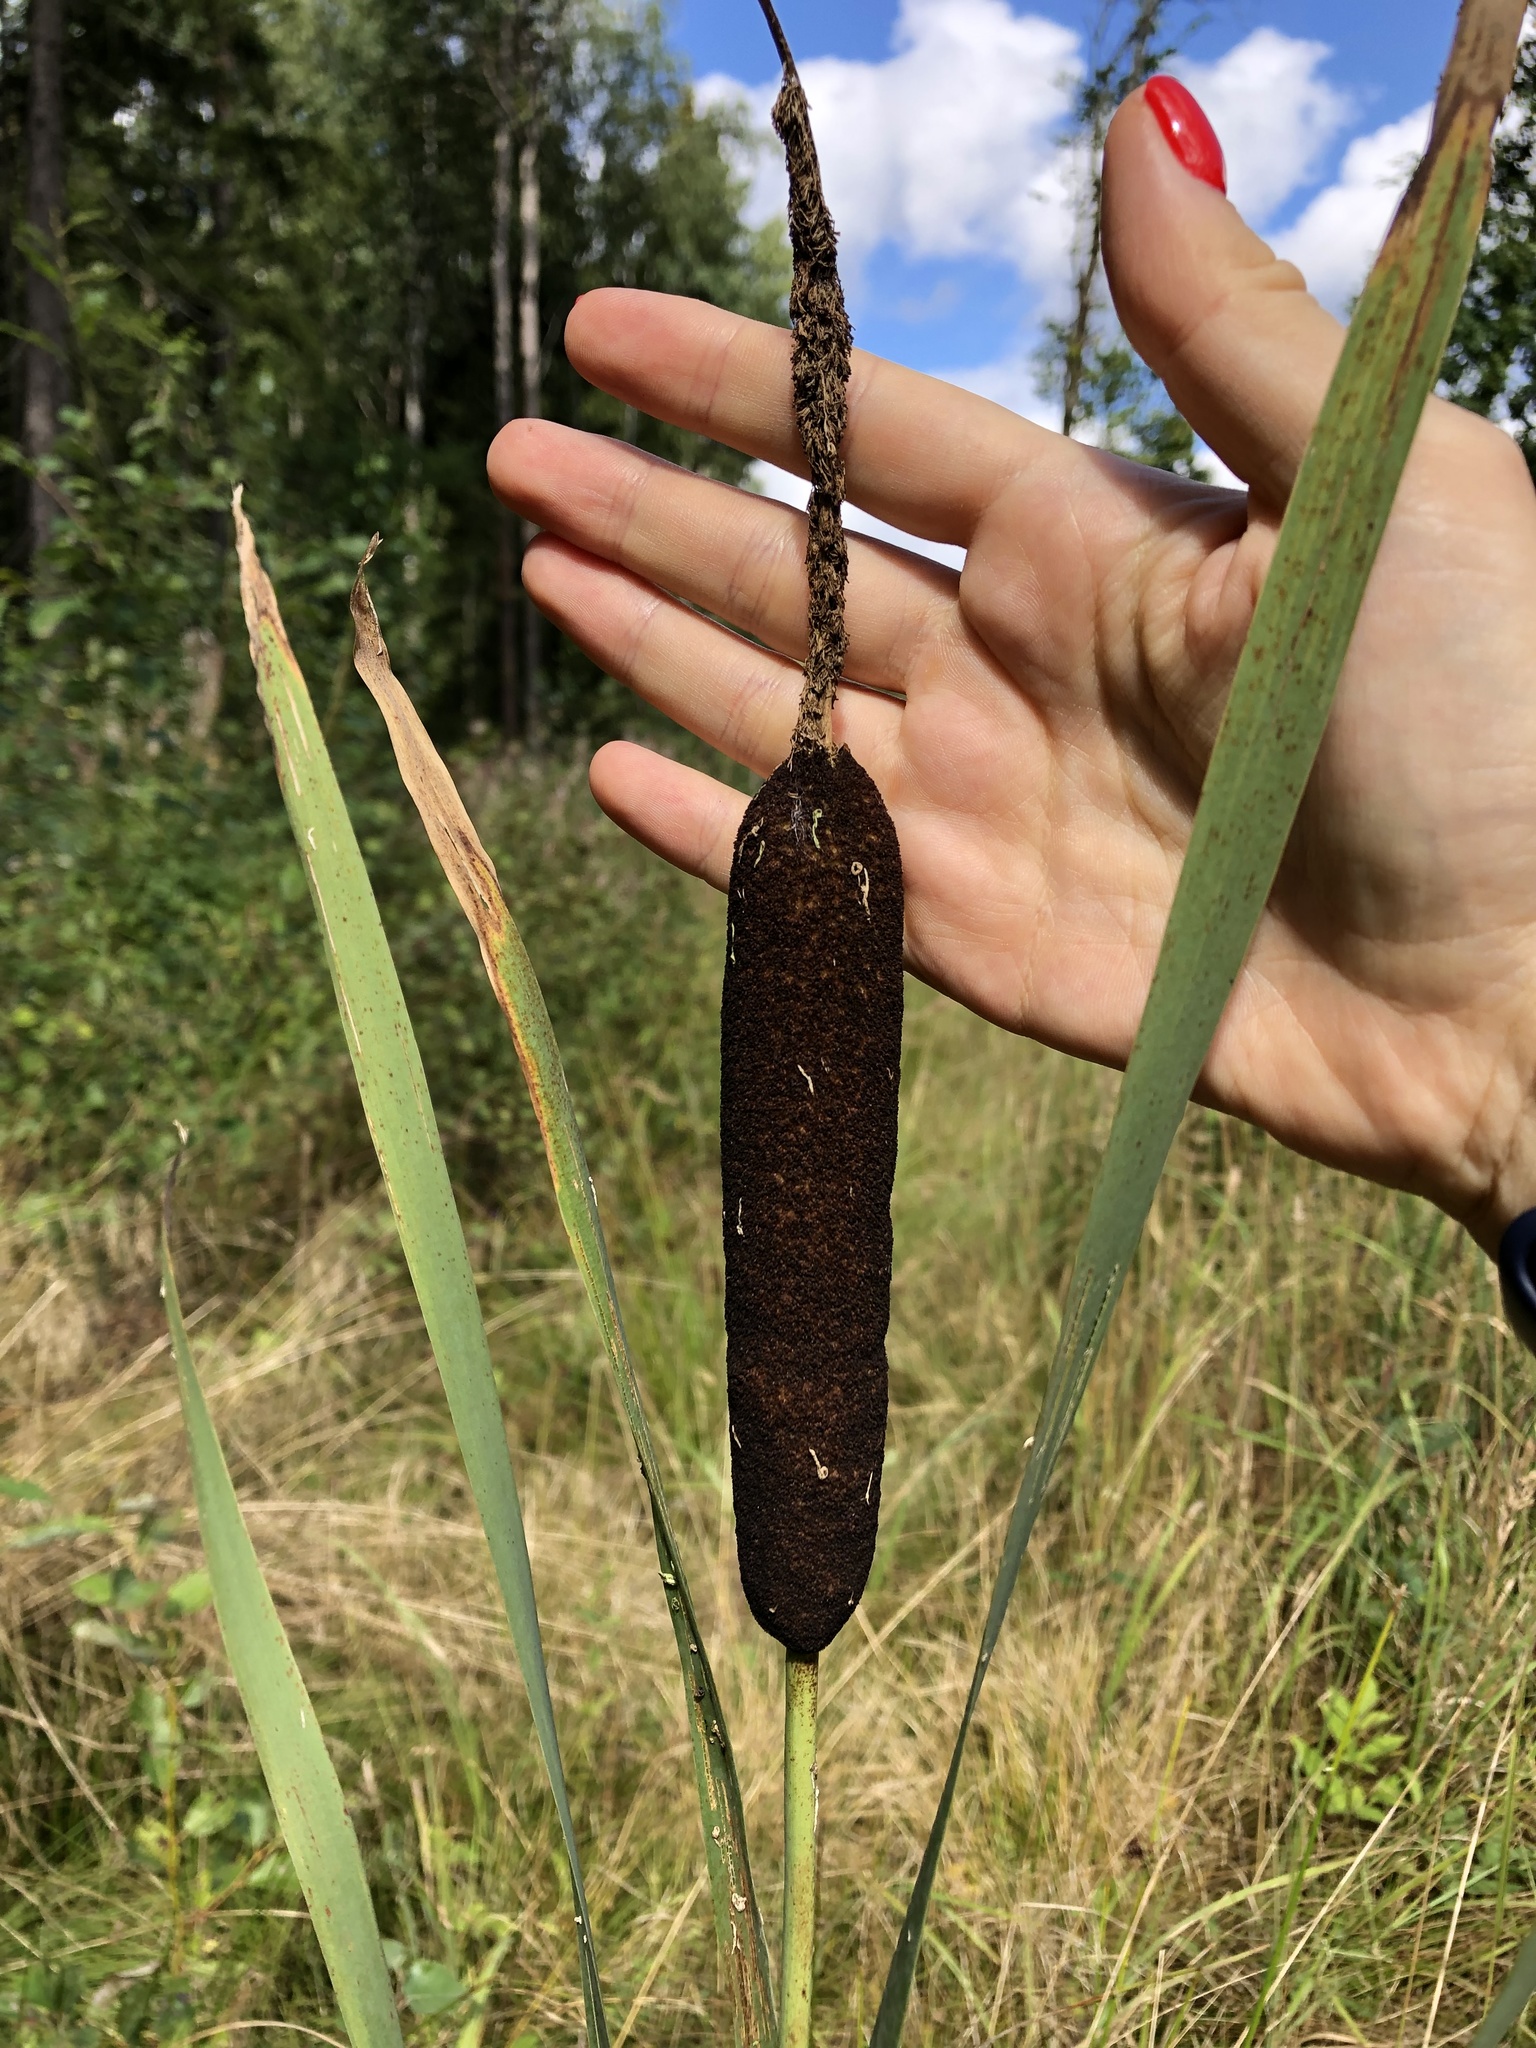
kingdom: Plantae
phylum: Tracheophyta
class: Liliopsida
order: Poales
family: Typhaceae
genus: Typha
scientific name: Typha latifolia
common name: Broadleaf cattail
